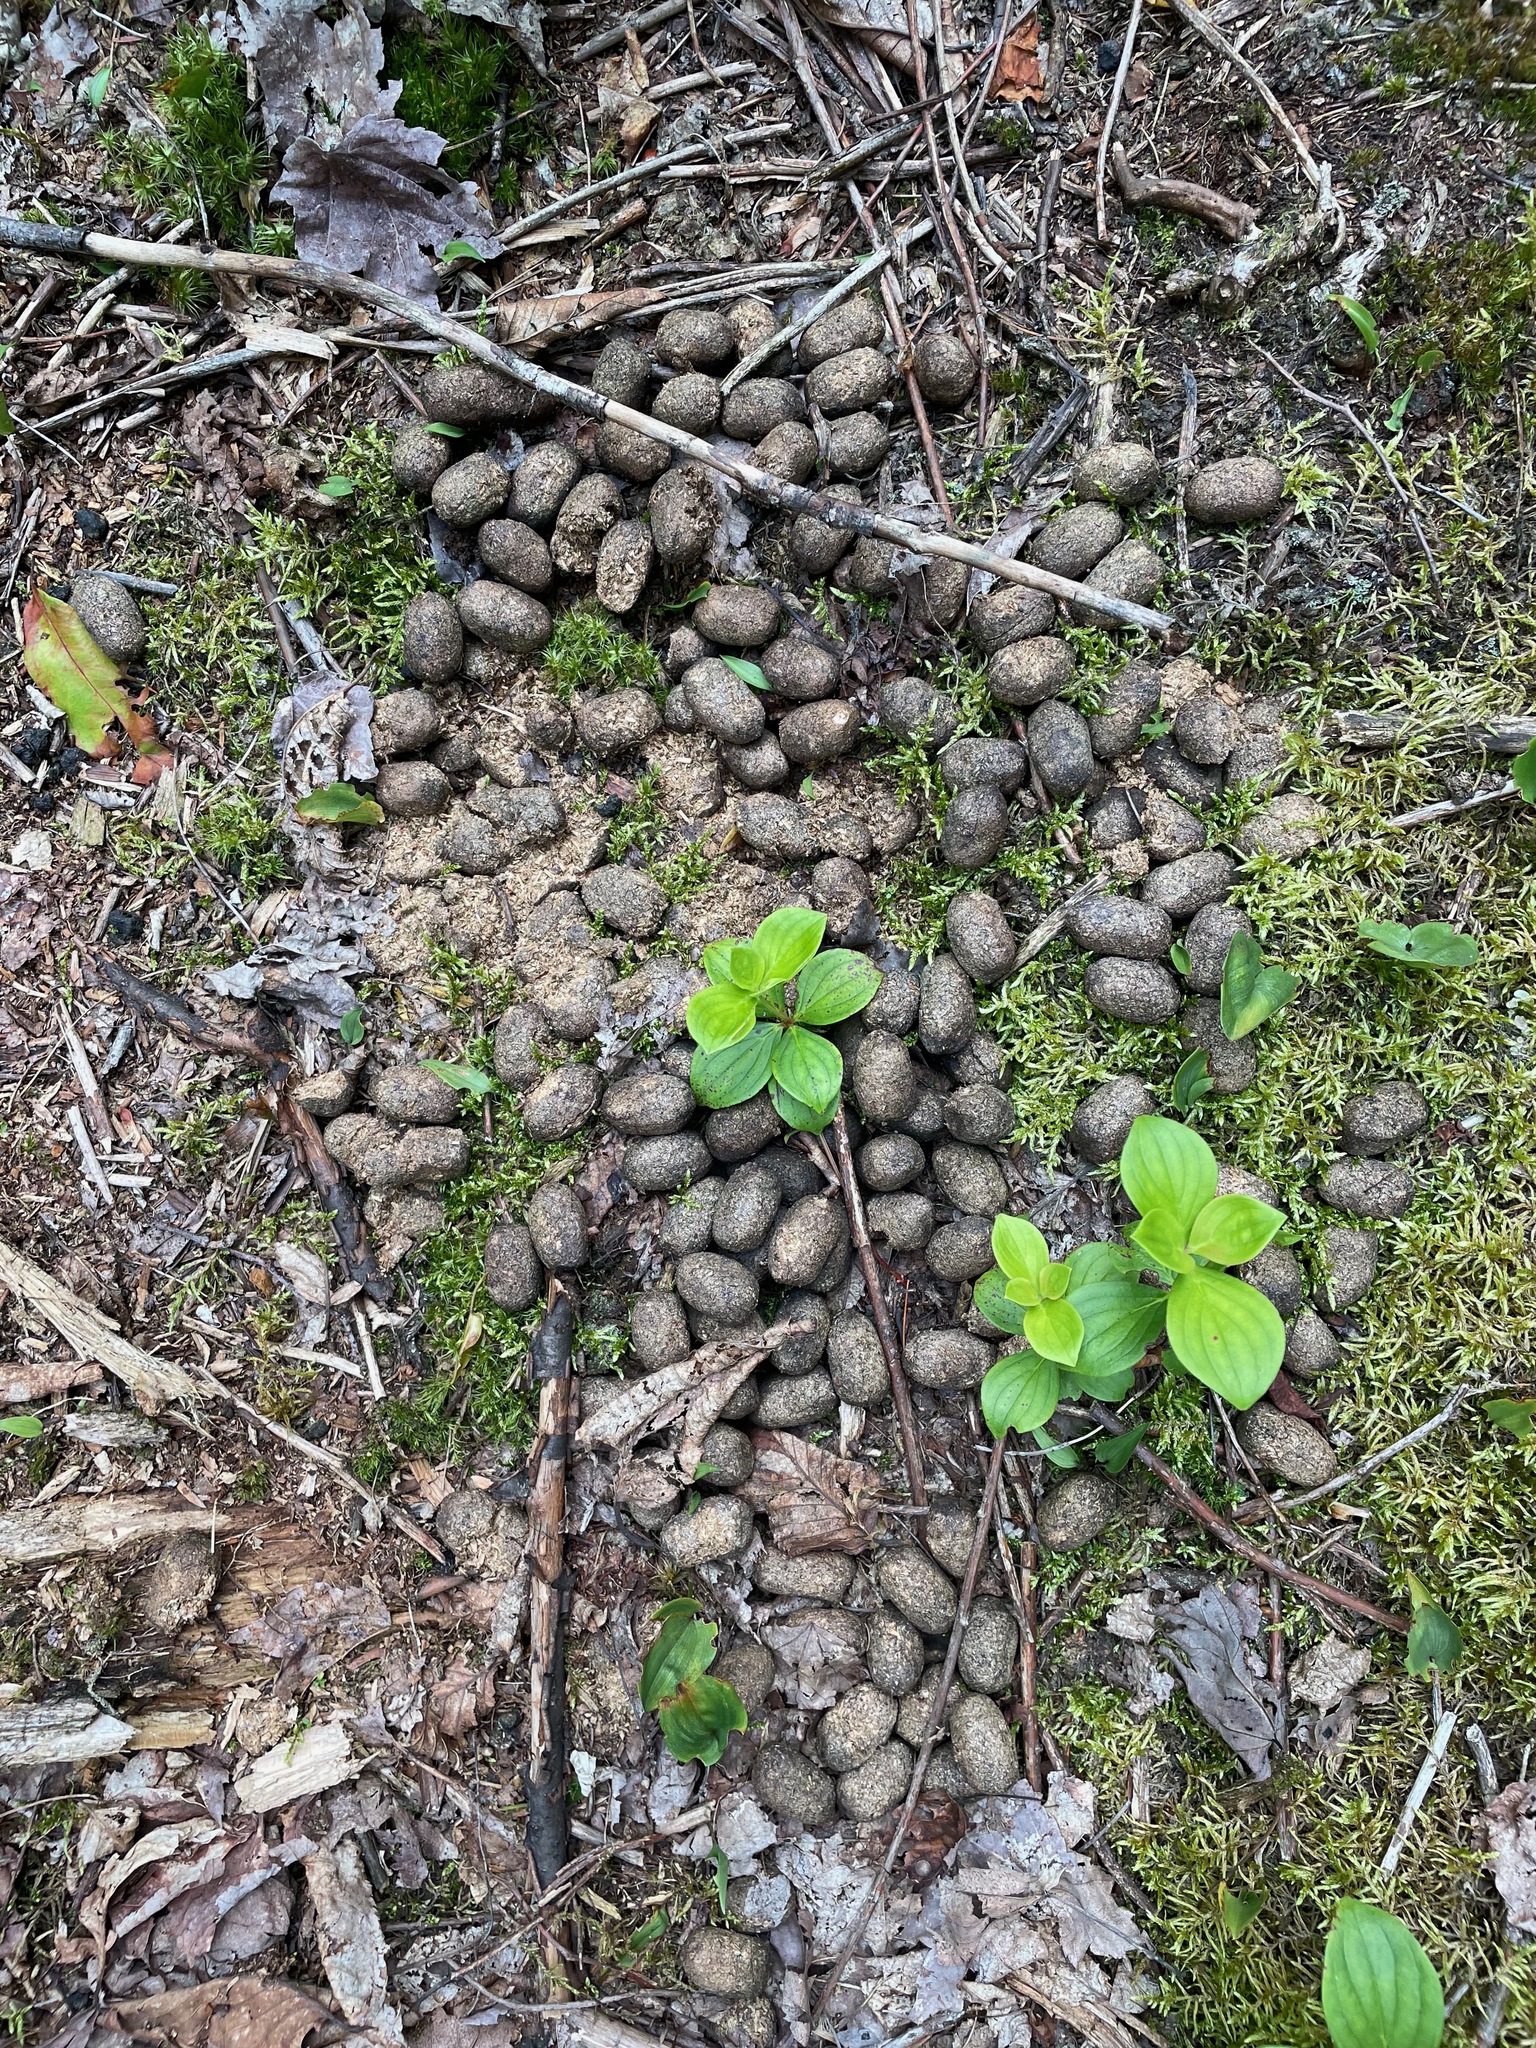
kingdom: Animalia
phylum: Chordata
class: Mammalia
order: Artiodactyla
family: Cervidae
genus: Alces
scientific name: Alces alces
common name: Moose
